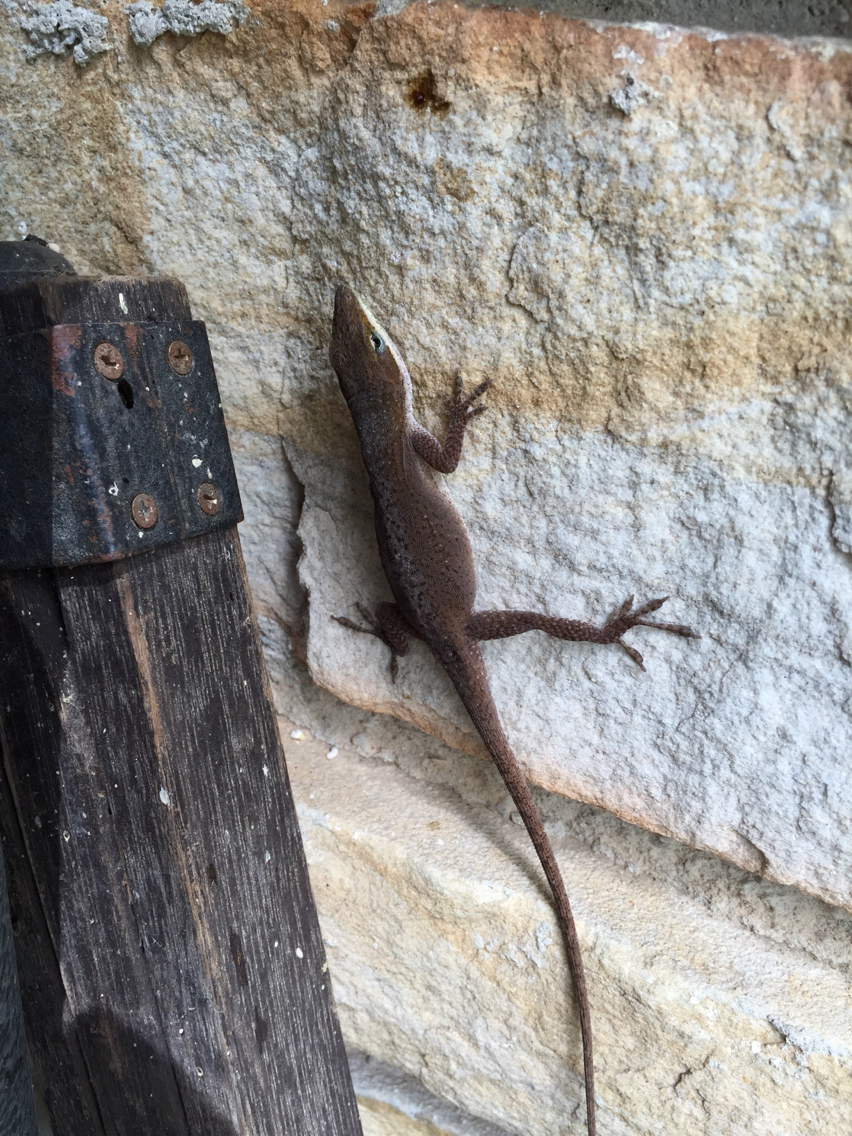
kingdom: Animalia
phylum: Chordata
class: Squamata
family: Dactyloidae
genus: Anolis
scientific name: Anolis carolinensis
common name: Green anole
